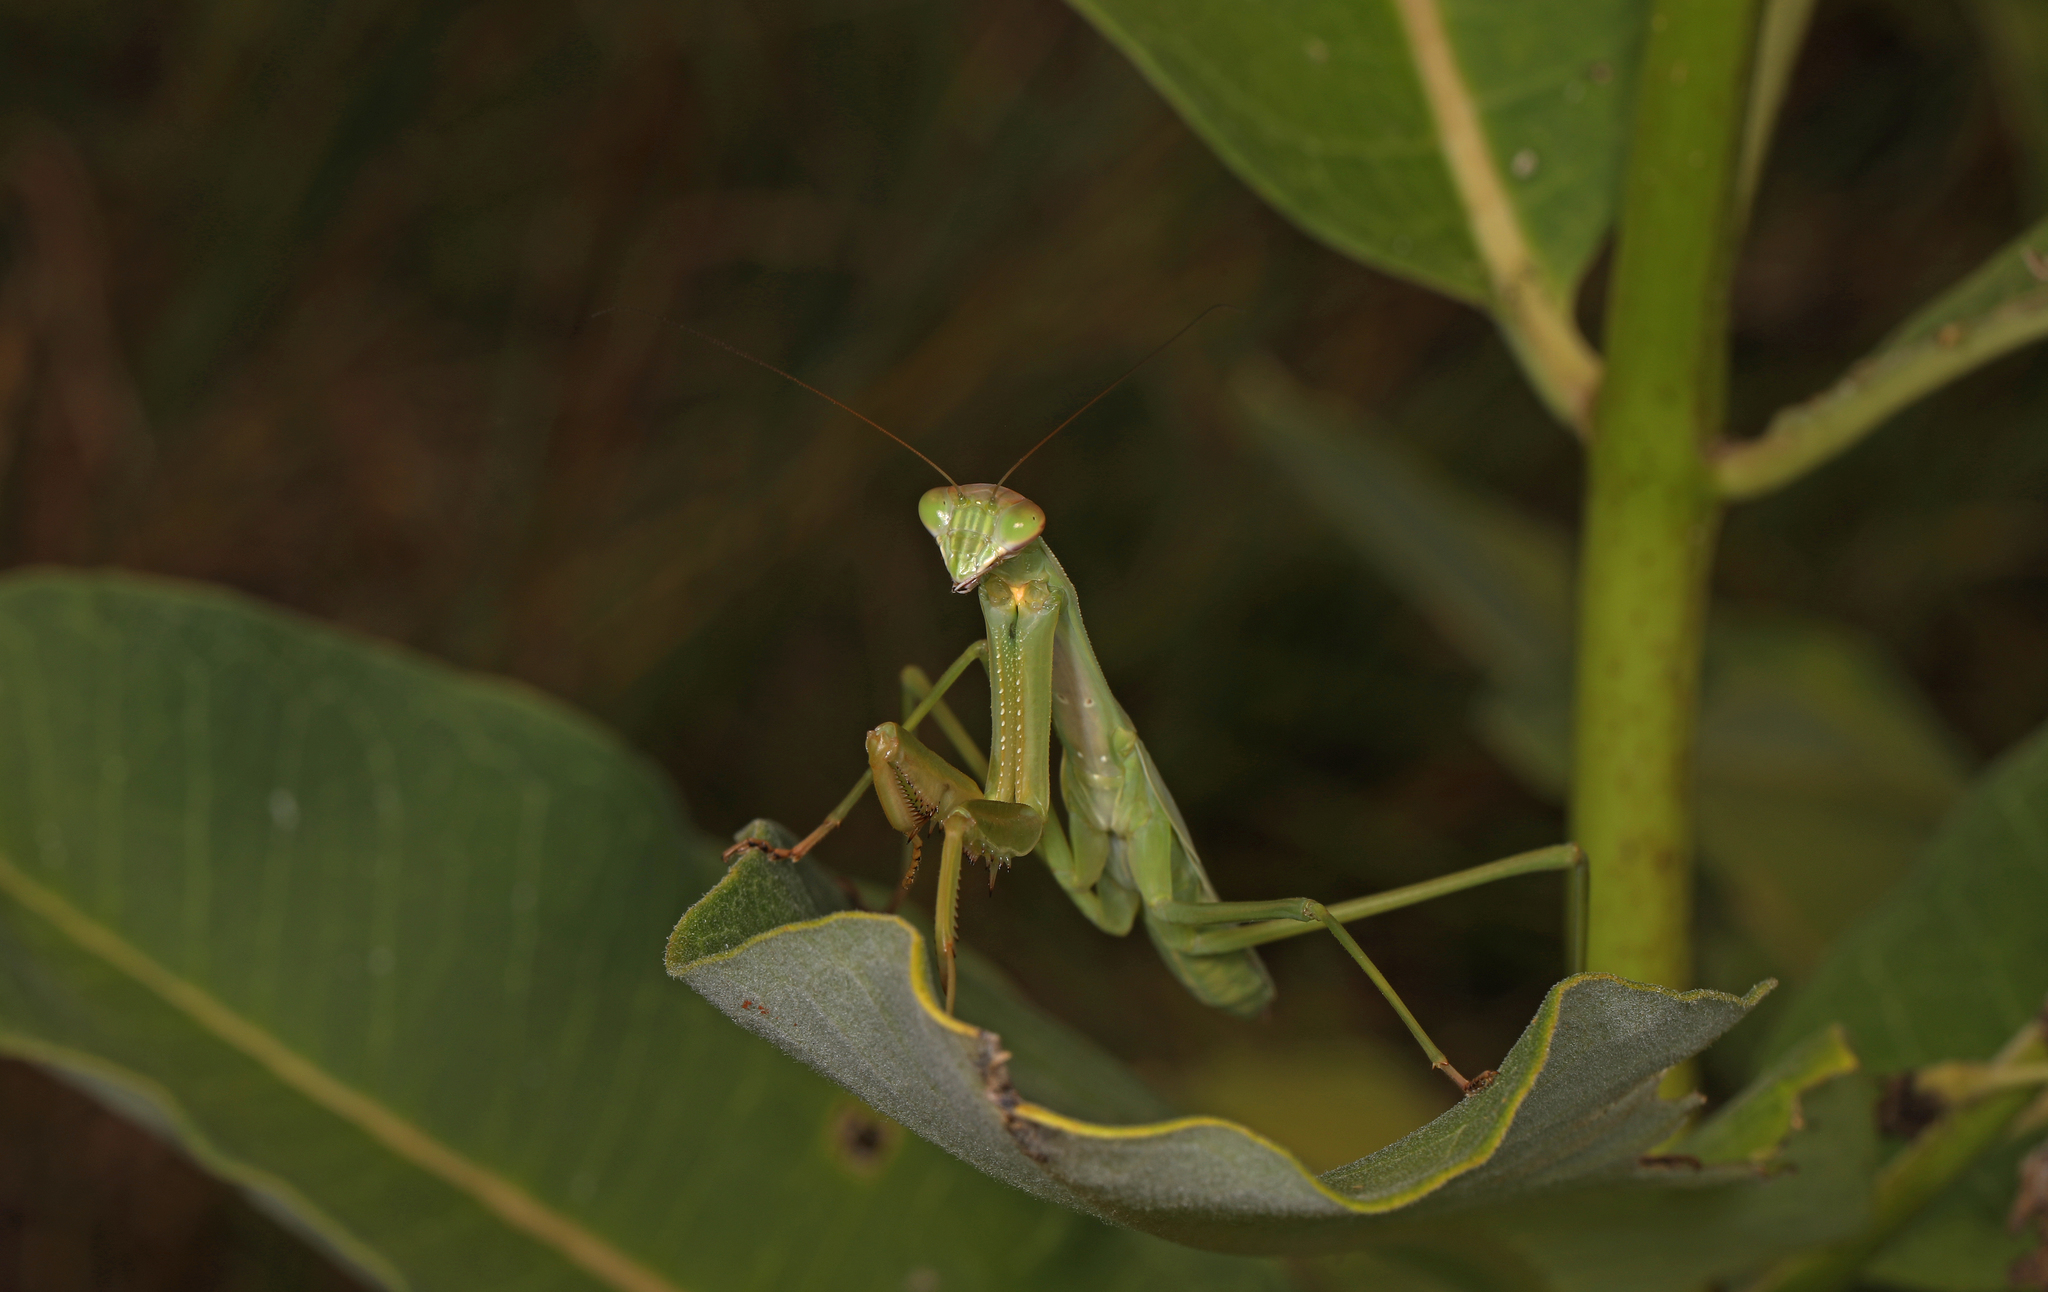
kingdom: Animalia
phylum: Arthropoda
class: Insecta
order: Mantodea
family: Mantidae
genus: Tenodera
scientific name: Tenodera sinensis
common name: Chinese mantis
